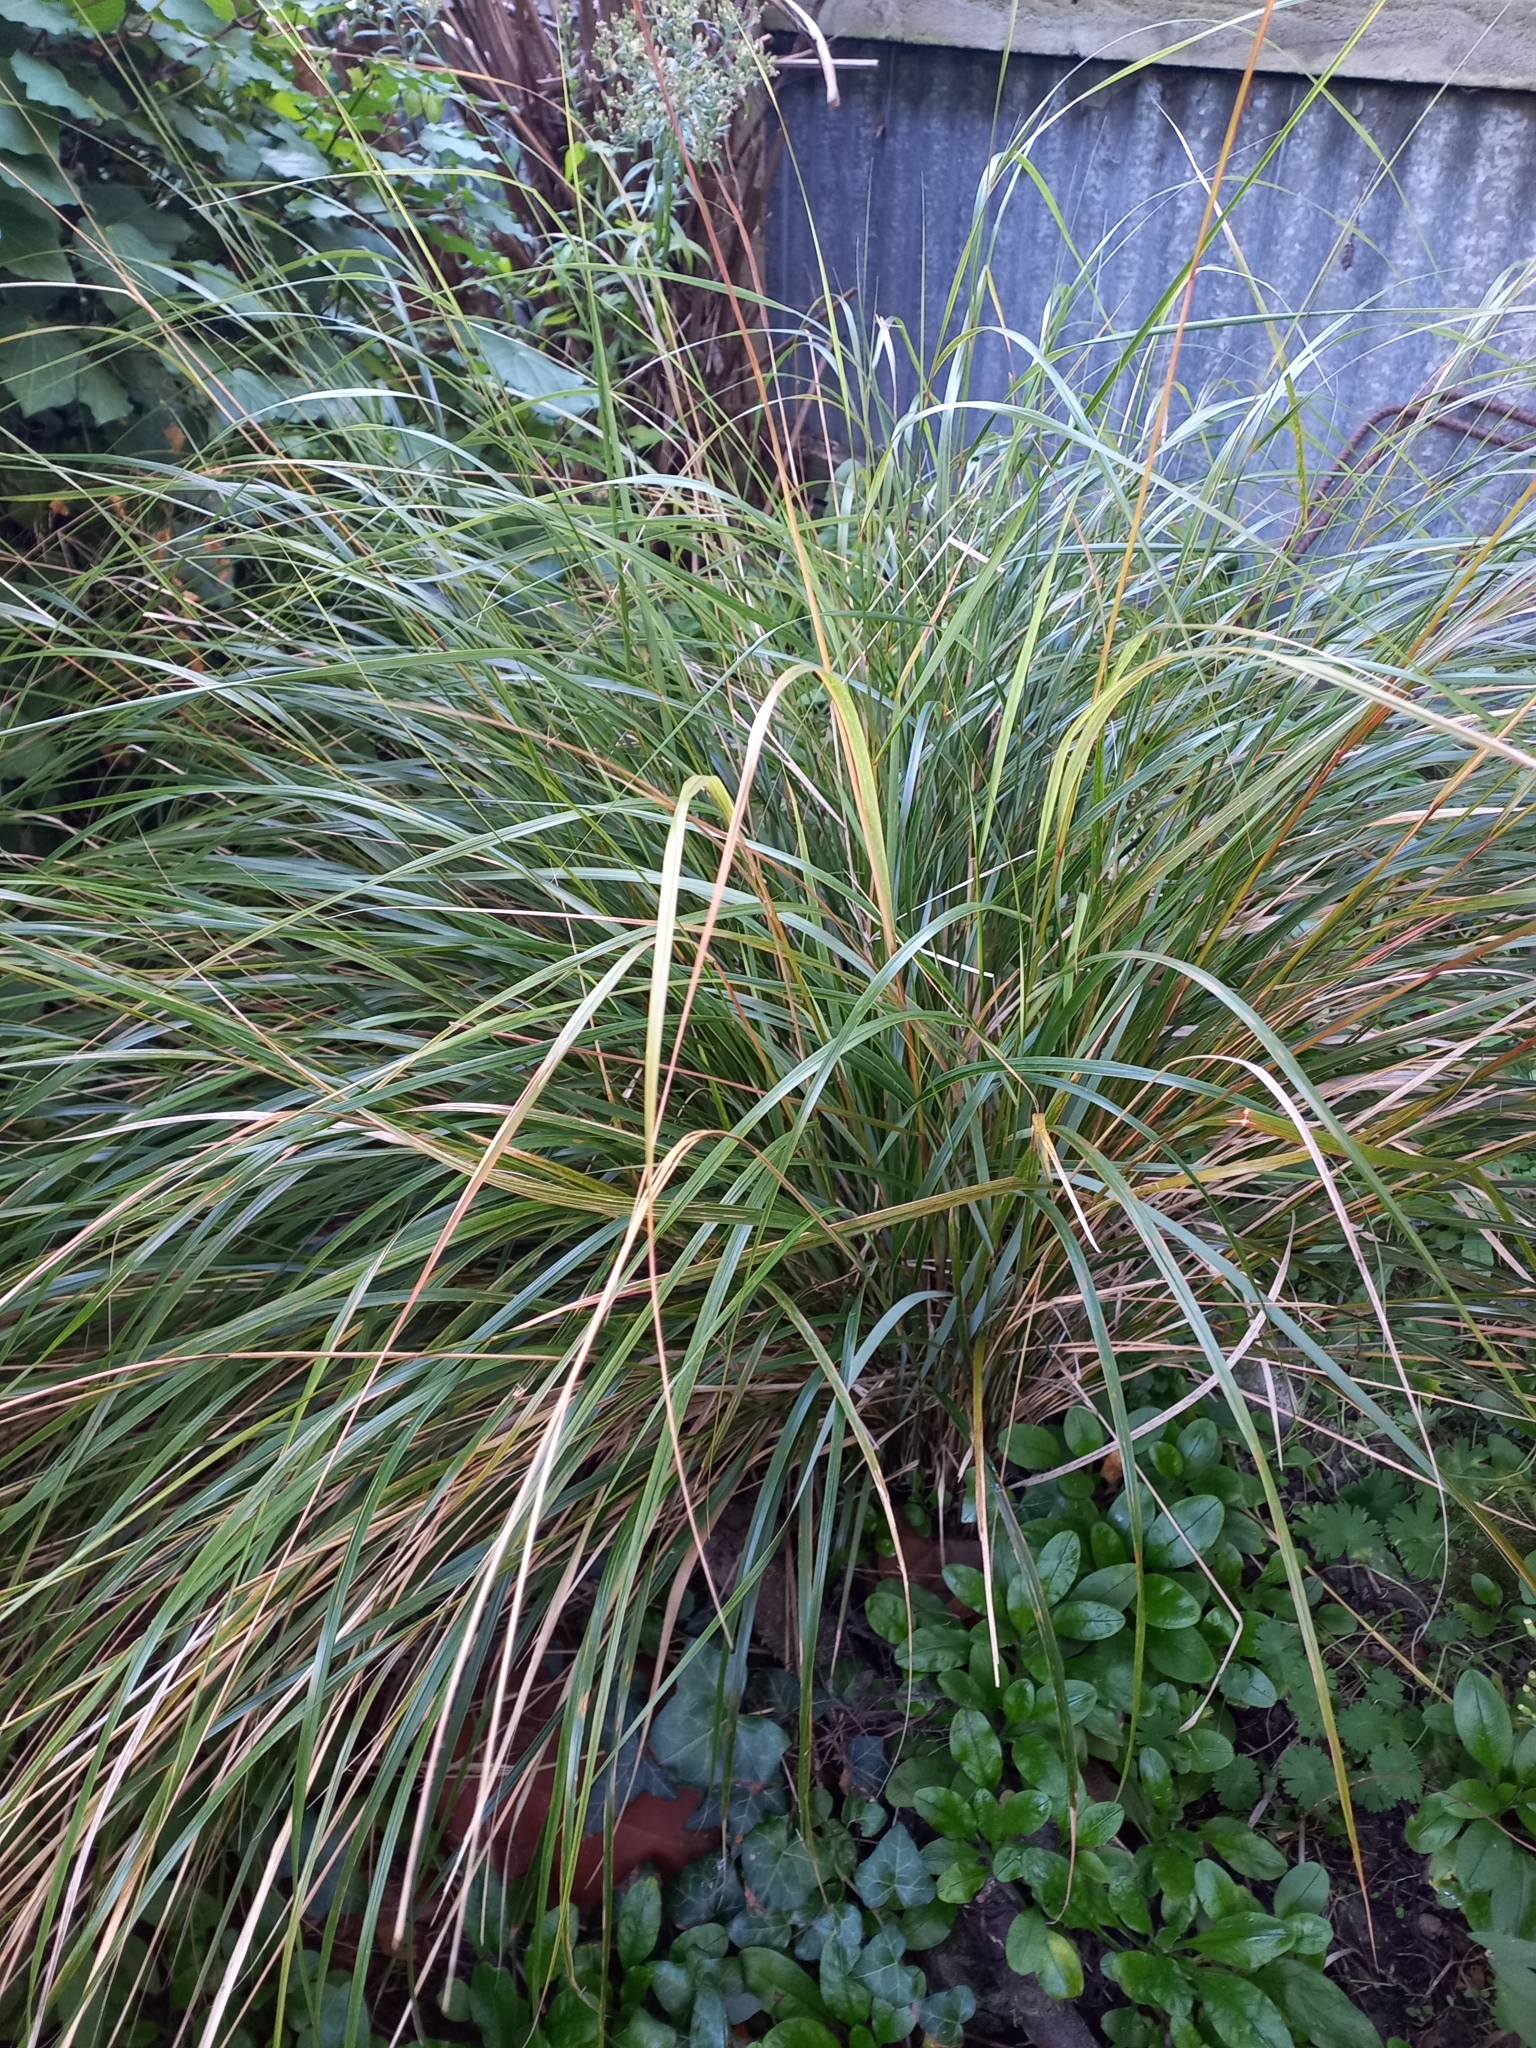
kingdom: Plantae
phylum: Tracheophyta
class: Liliopsida
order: Poales
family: Poaceae
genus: Anemanthele
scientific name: Anemanthele lessoniana
